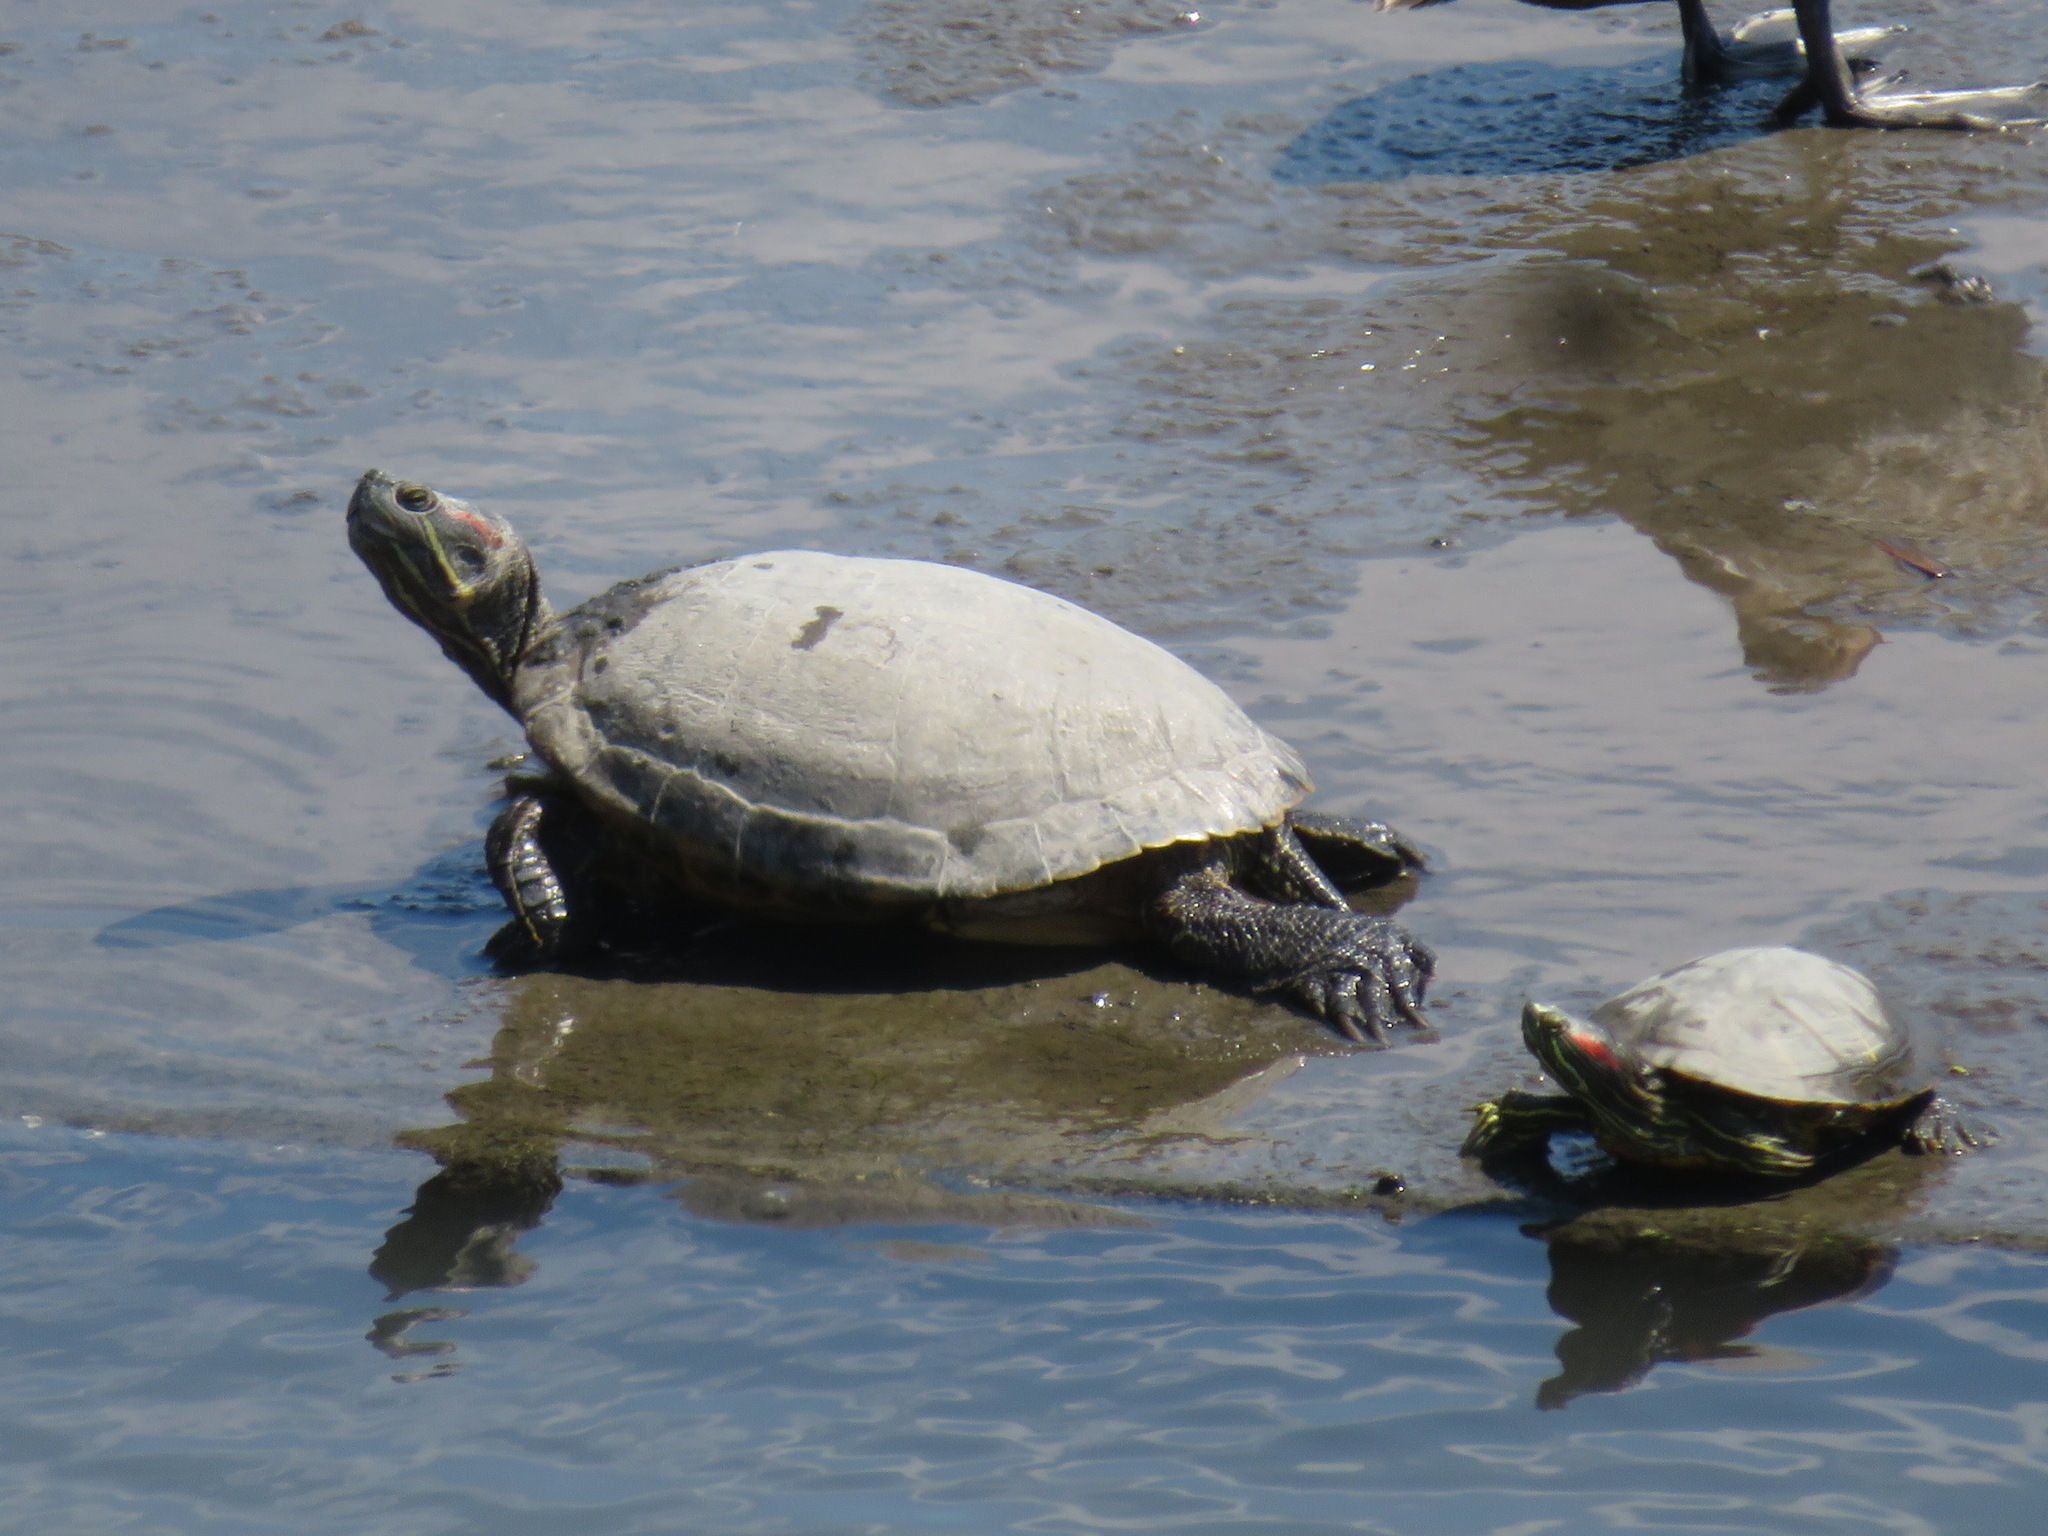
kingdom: Animalia
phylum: Chordata
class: Testudines
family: Emydidae
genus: Trachemys
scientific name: Trachemys scripta
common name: Slider
